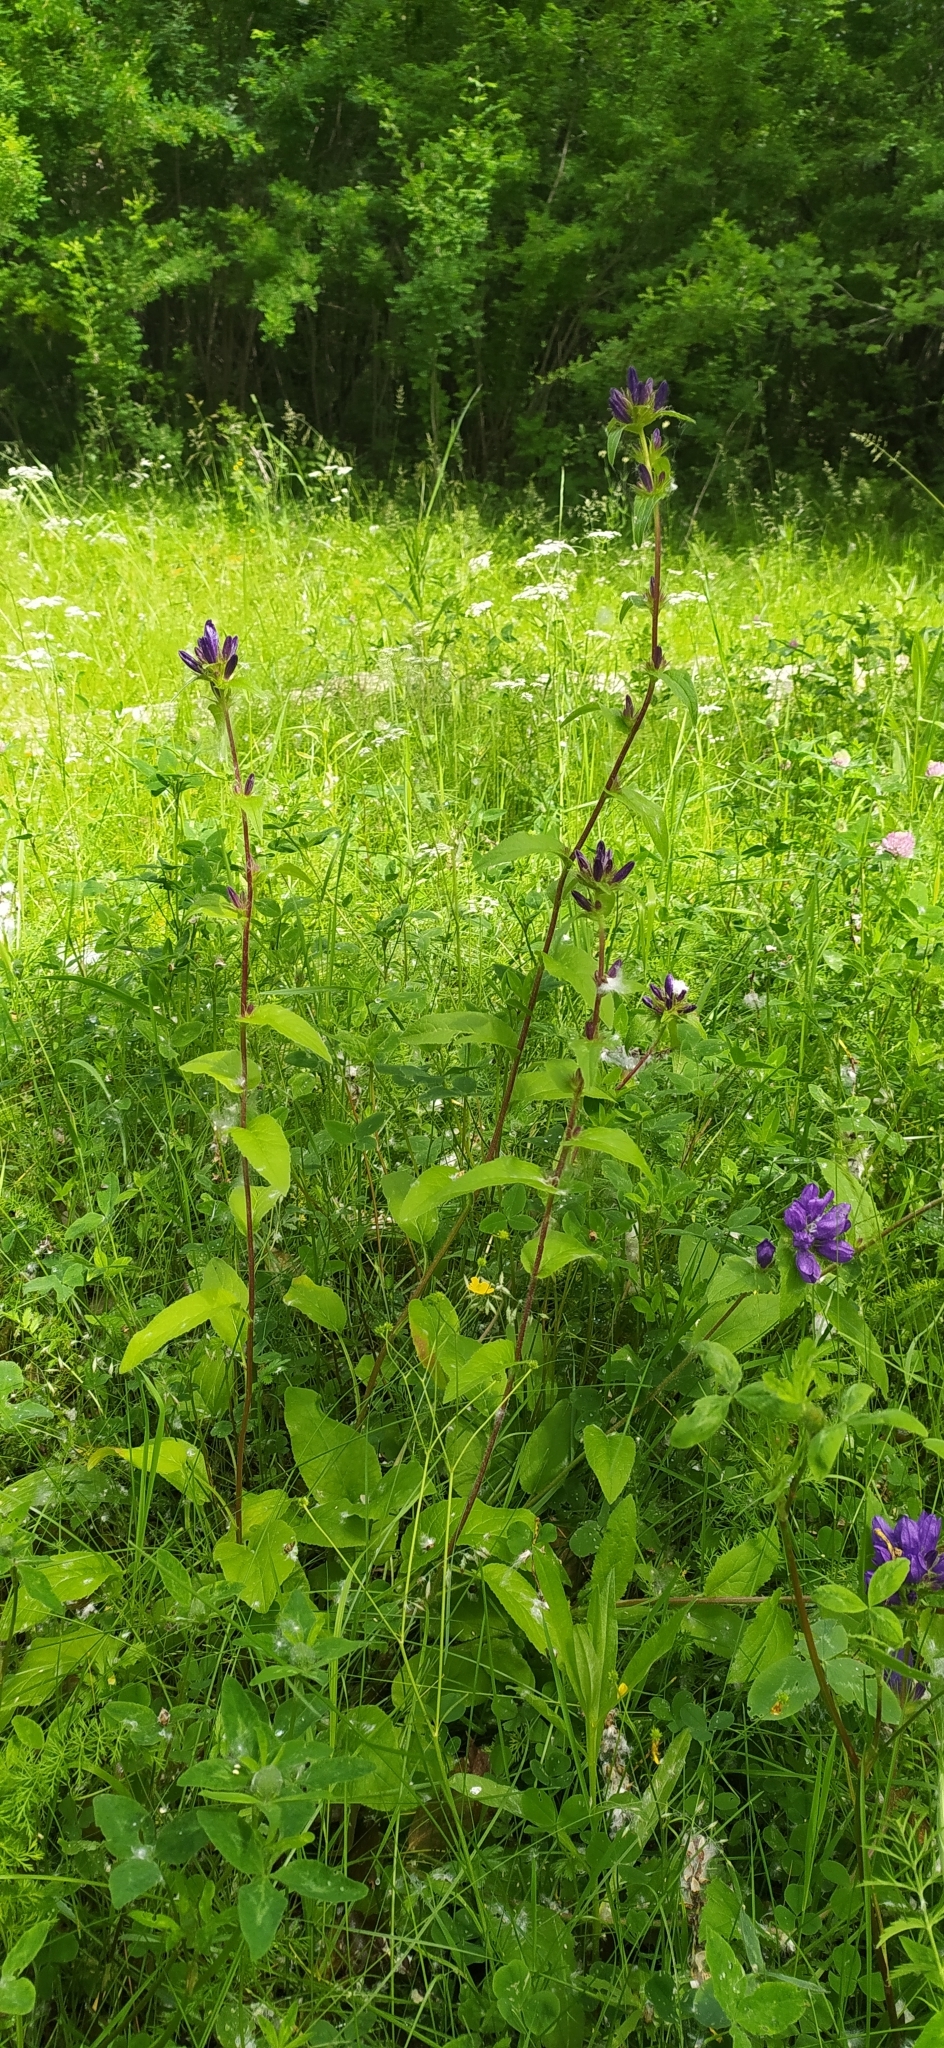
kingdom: Plantae
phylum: Tracheophyta
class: Magnoliopsida
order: Asterales
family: Campanulaceae
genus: Campanula
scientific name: Campanula glomerata
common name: Clustered bellflower
